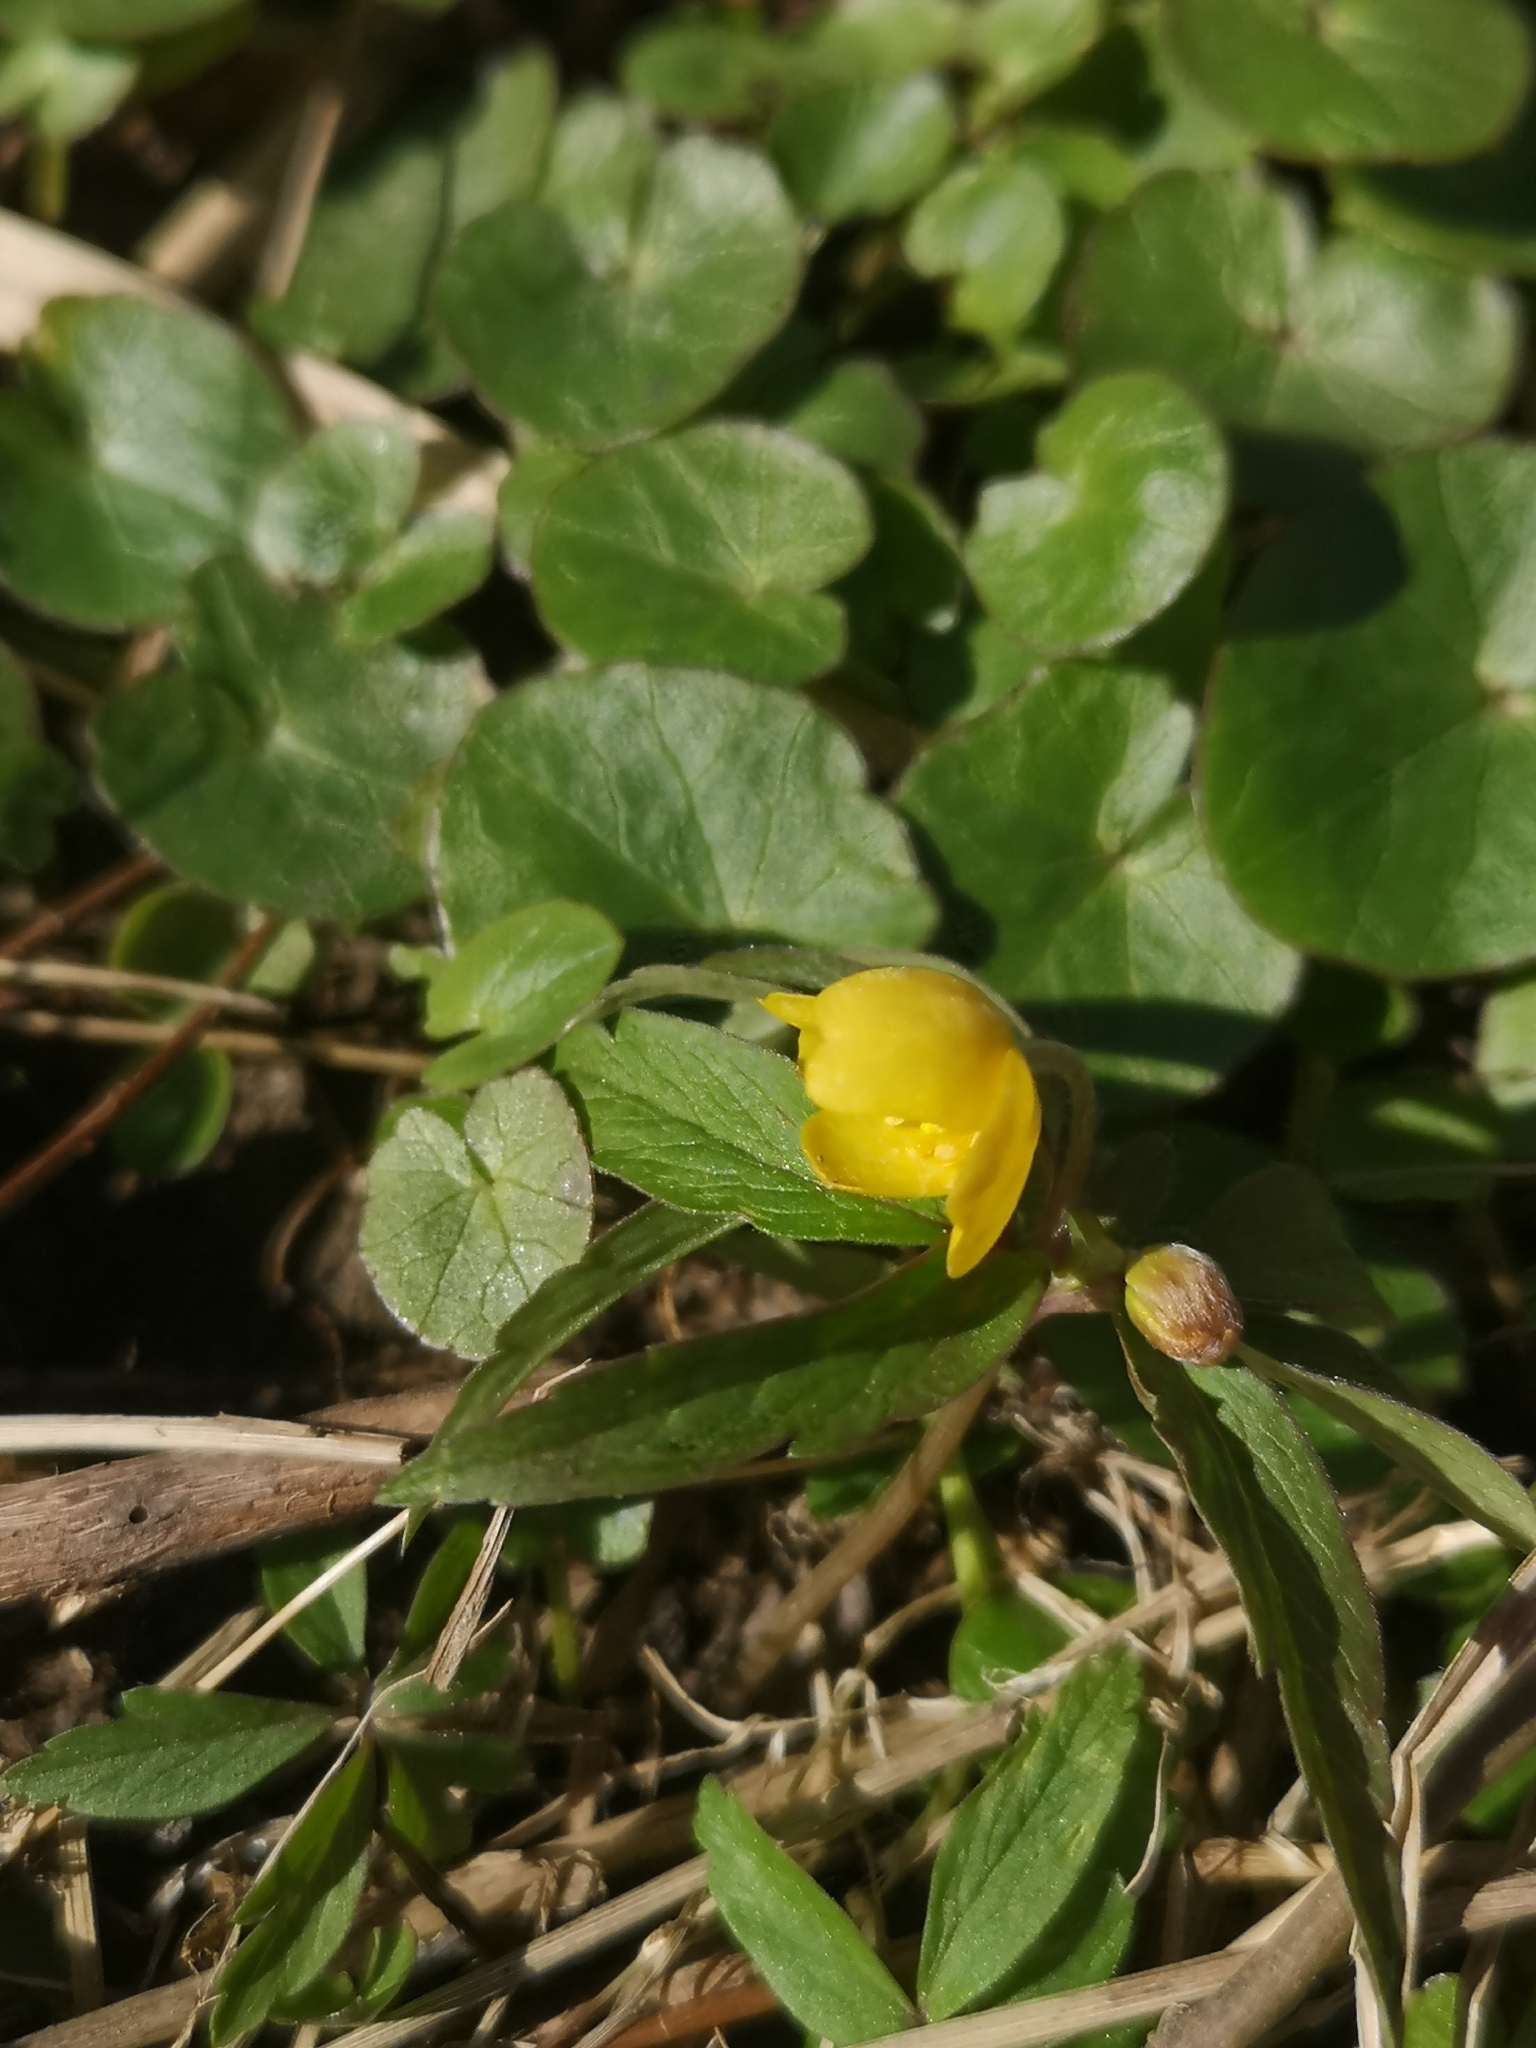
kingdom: Plantae
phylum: Tracheophyta
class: Magnoliopsida
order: Ranunculales
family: Ranunculaceae
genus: Ficaria
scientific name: Ficaria verna
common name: Lesser celandine
